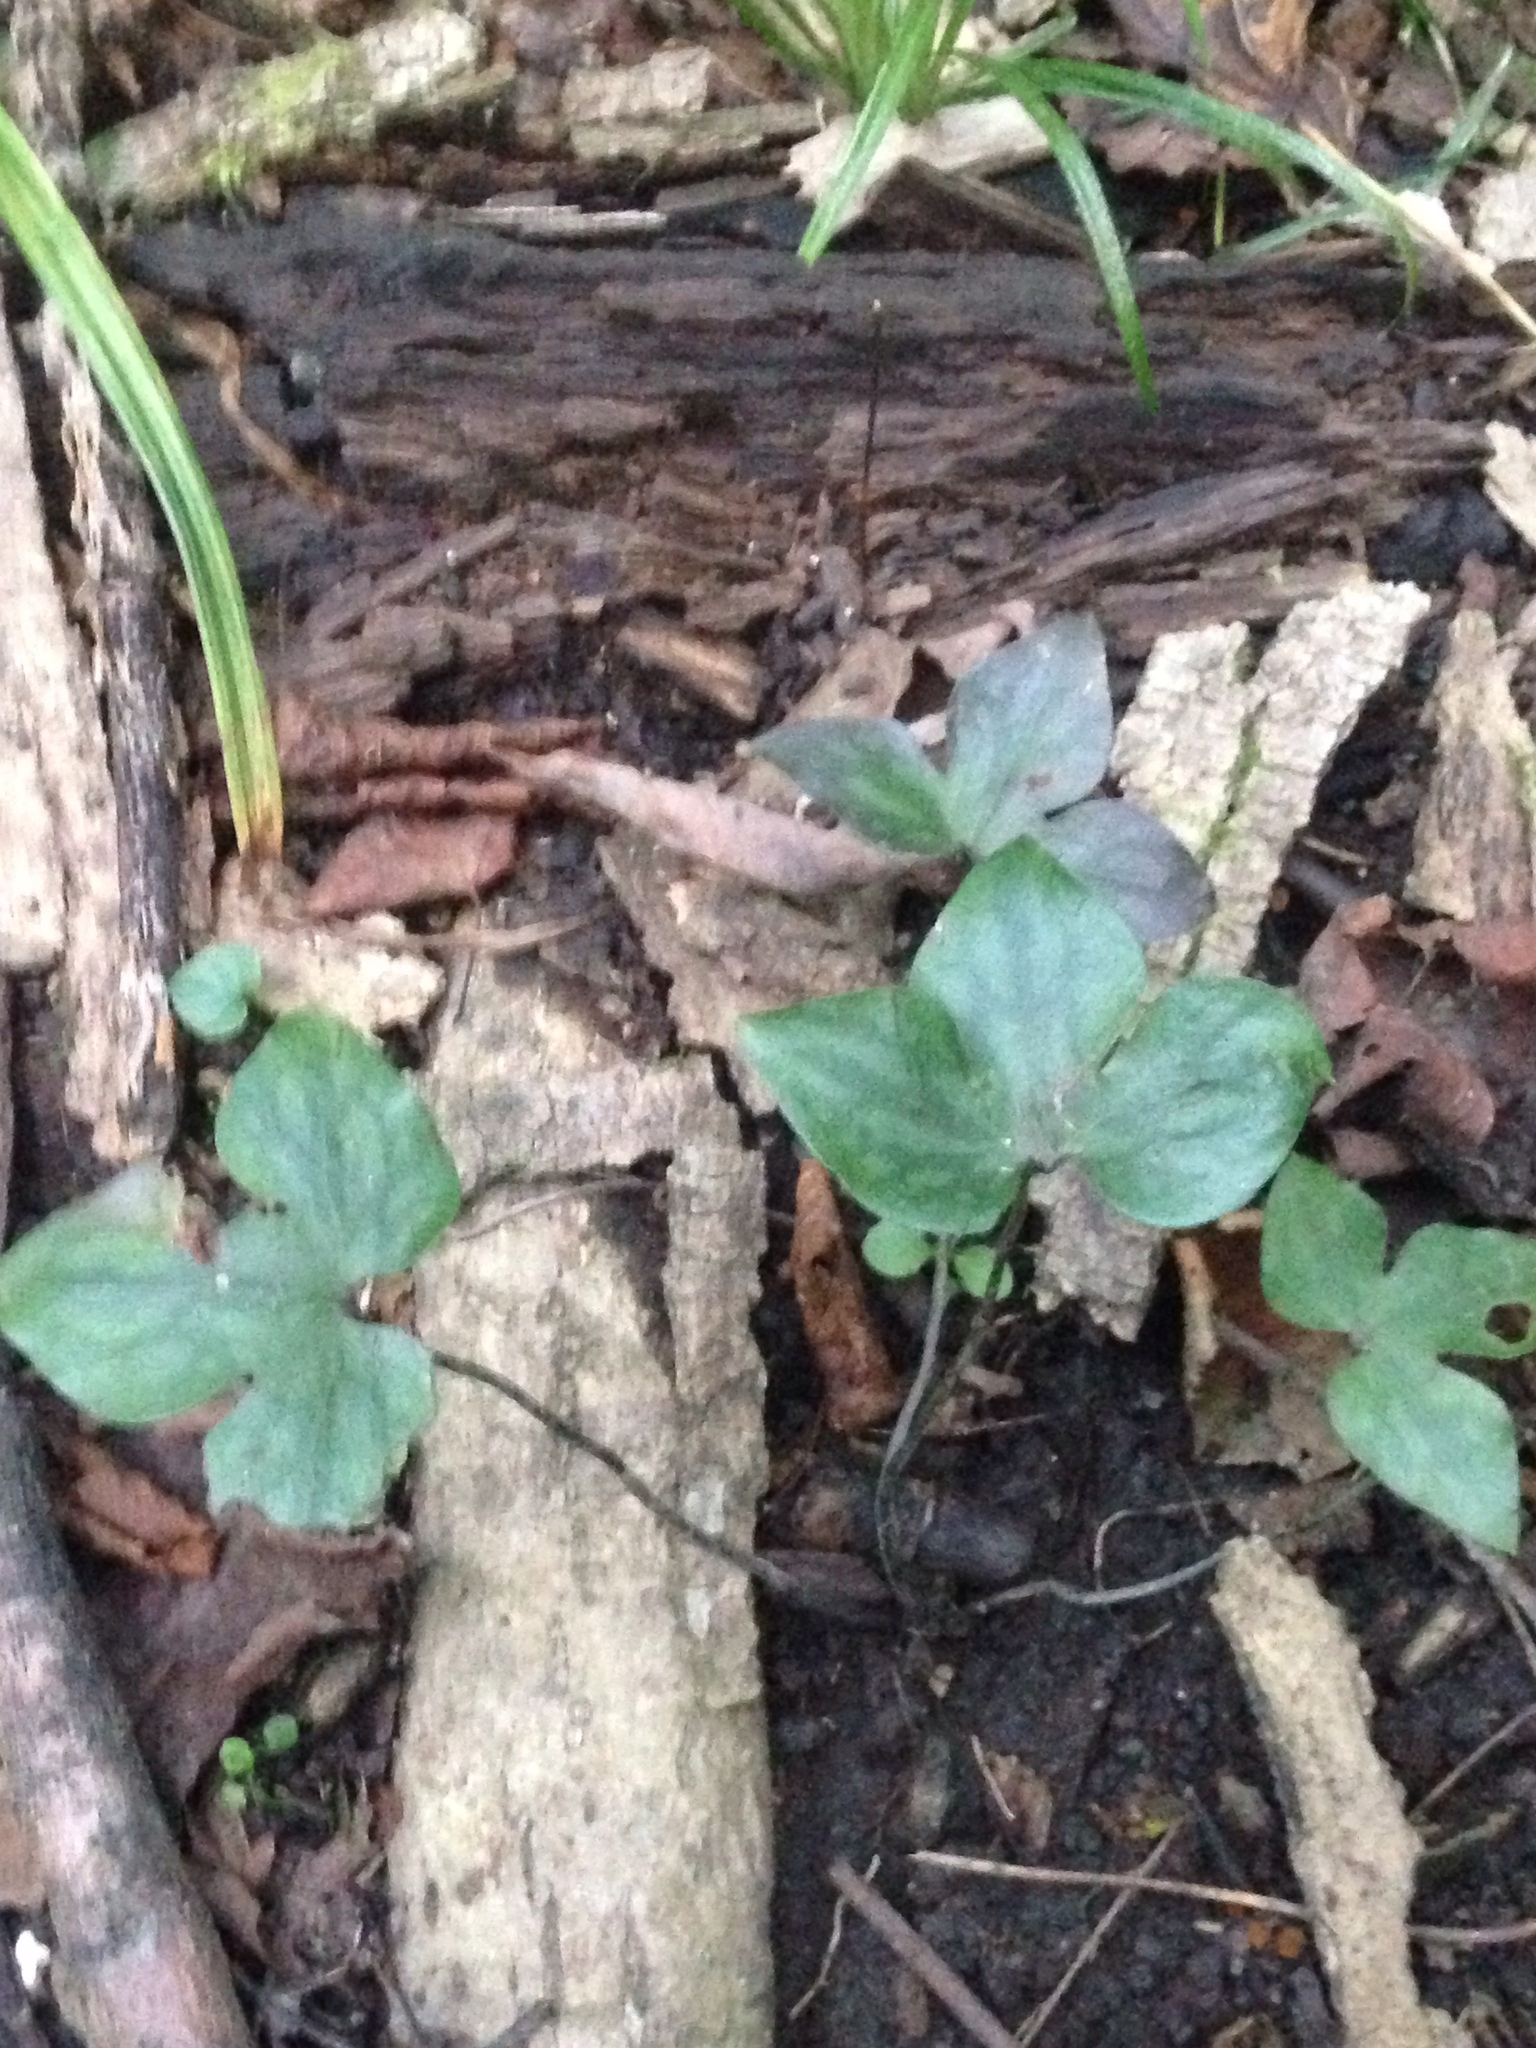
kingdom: Plantae
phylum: Tracheophyta
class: Magnoliopsida
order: Ranunculales
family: Ranunculaceae
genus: Hepatica
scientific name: Hepatica acutiloba
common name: Sharp-lobed hepatica
